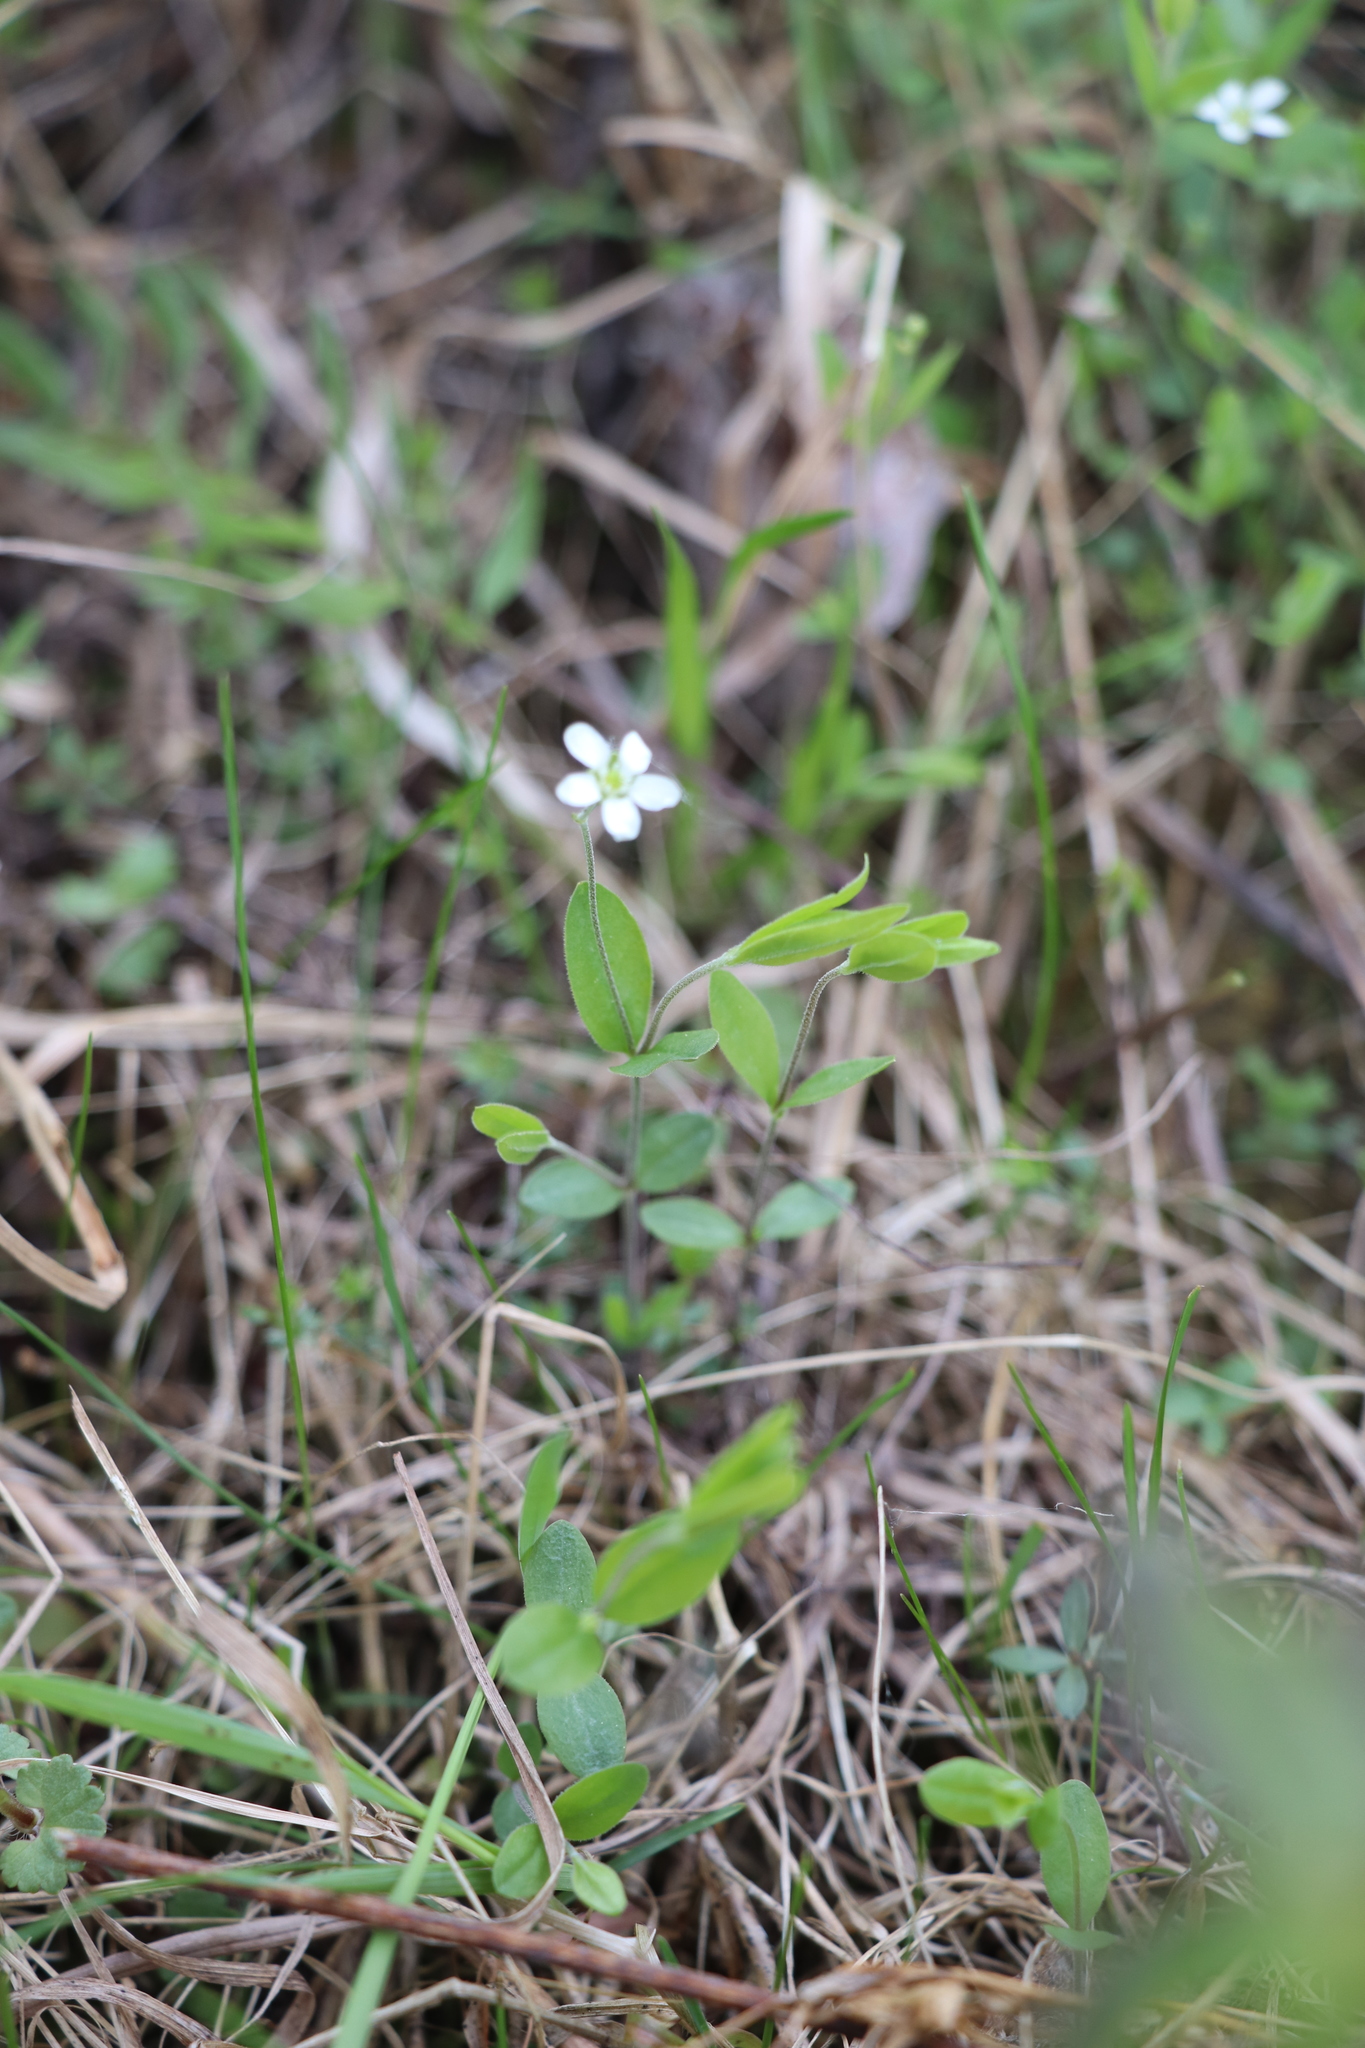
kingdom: Plantae
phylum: Tracheophyta
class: Magnoliopsida
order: Caryophyllales
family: Caryophyllaceae
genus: Moehringia
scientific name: Moehringia lateriflora
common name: Blunt-leaved sandwort
